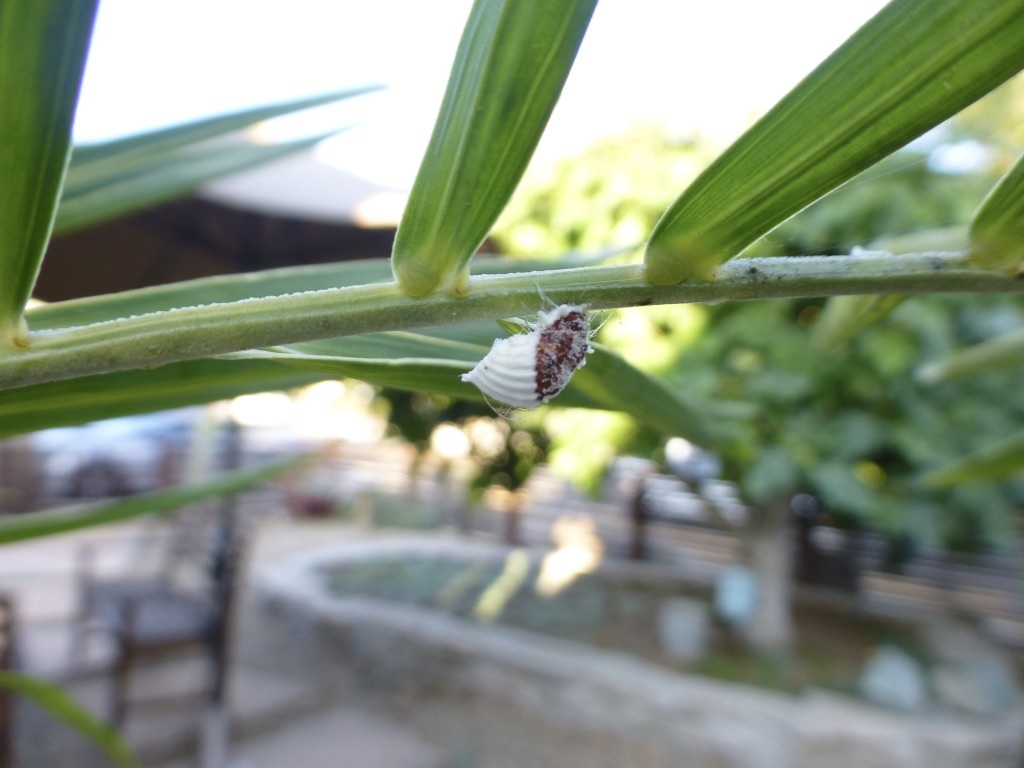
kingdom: Animalia
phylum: Arthropoda
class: Insecta
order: Hemiptera
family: Margarodidae
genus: Icerya
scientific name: Icerya purchasi
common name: Cottony cushion scale
